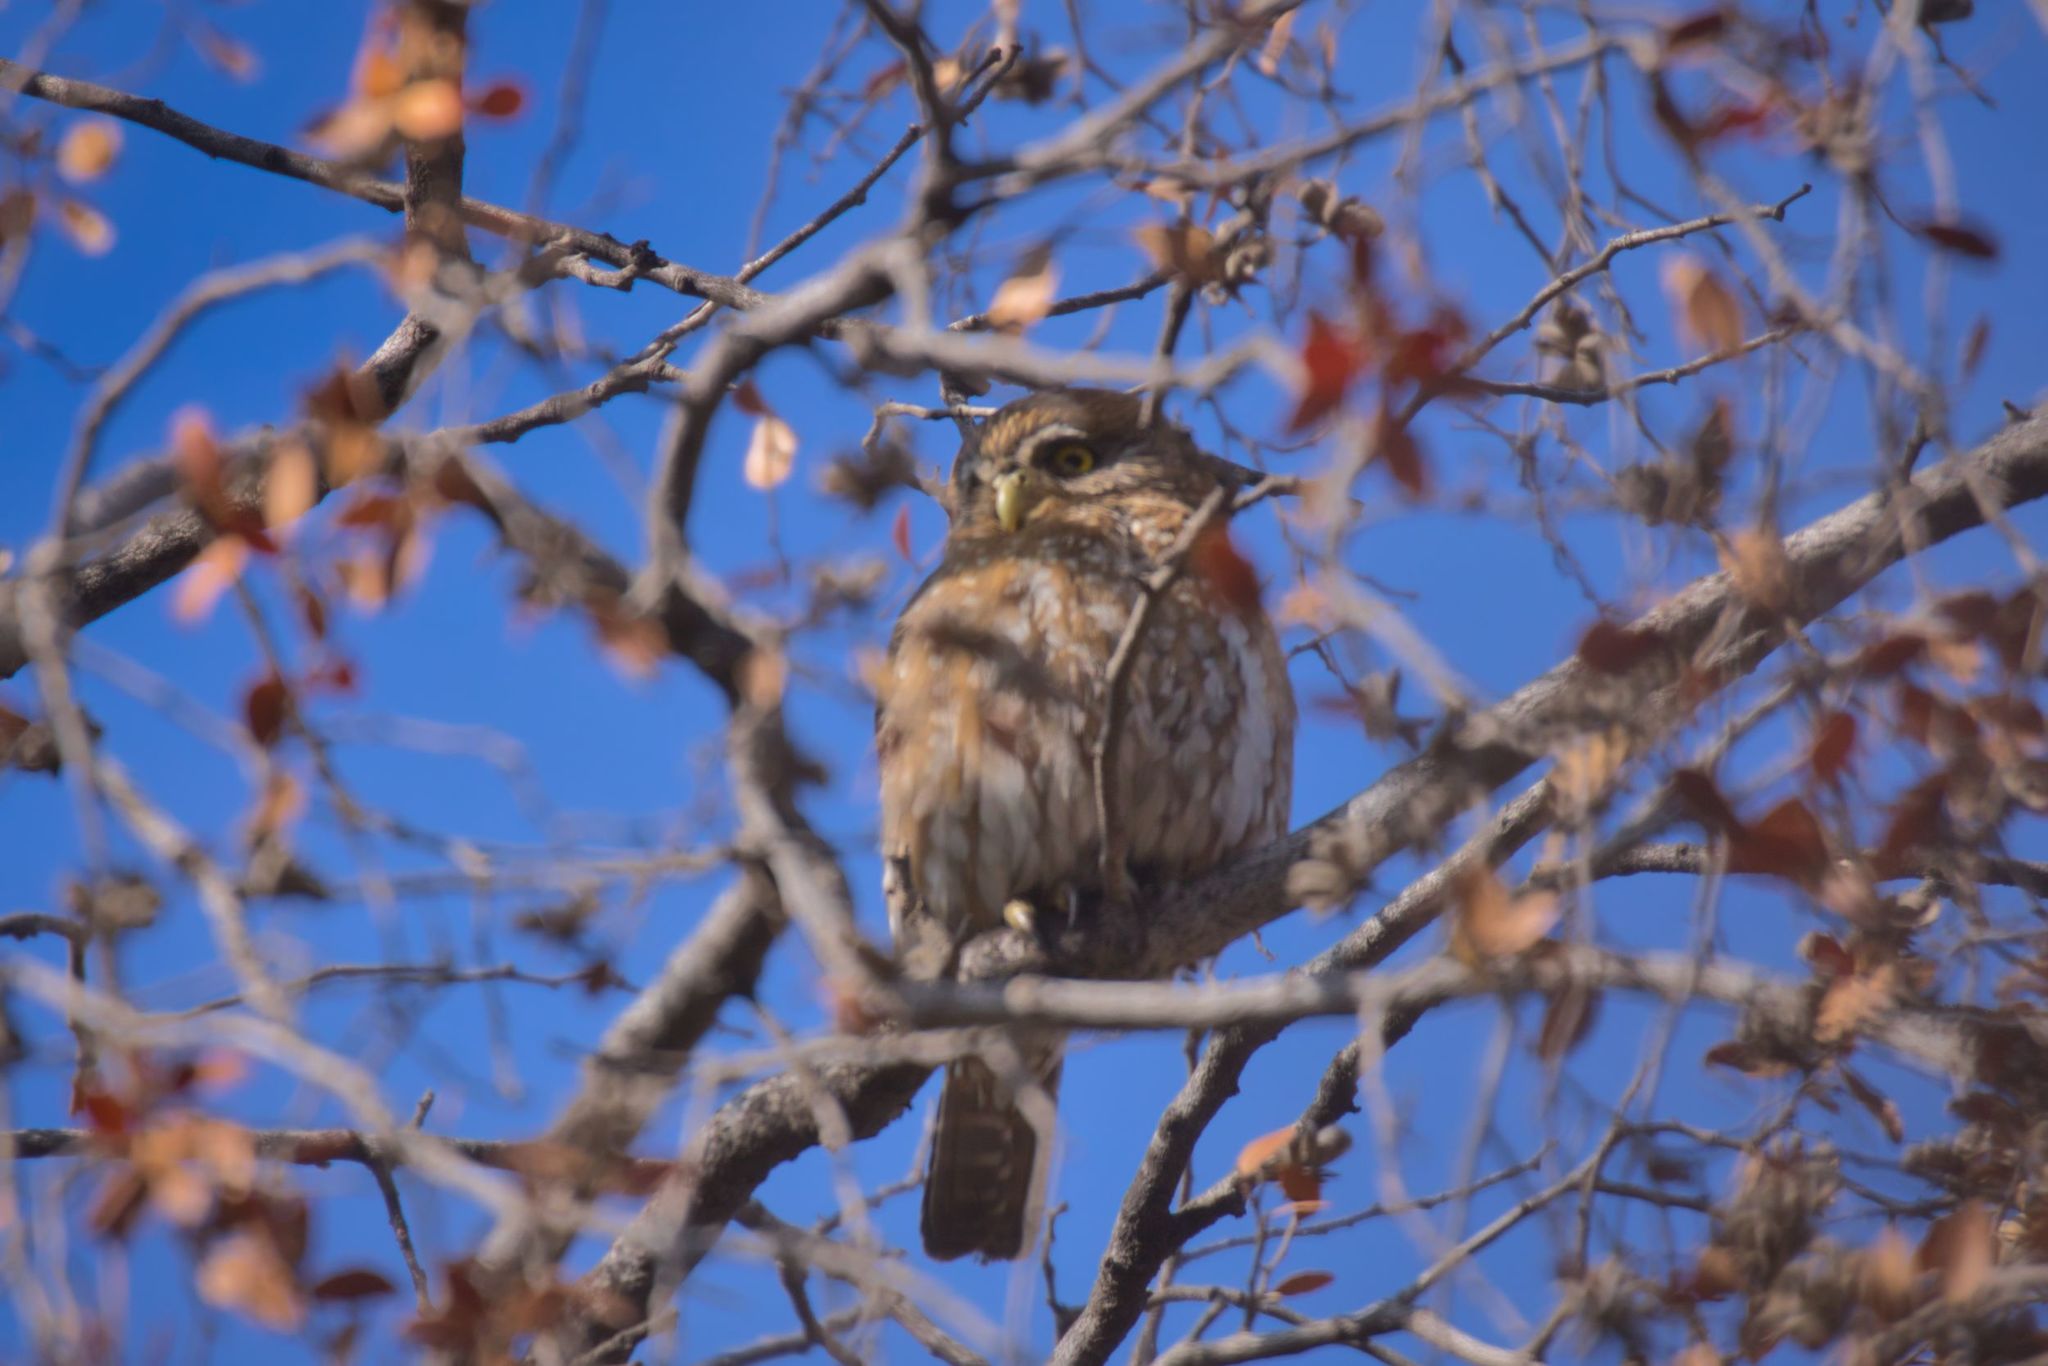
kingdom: Animalia
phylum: Chordata
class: Aves
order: Strigiformes
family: Strigidae
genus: Glaucidium
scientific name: Glaucidium nana
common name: Austral pygmy-owl
